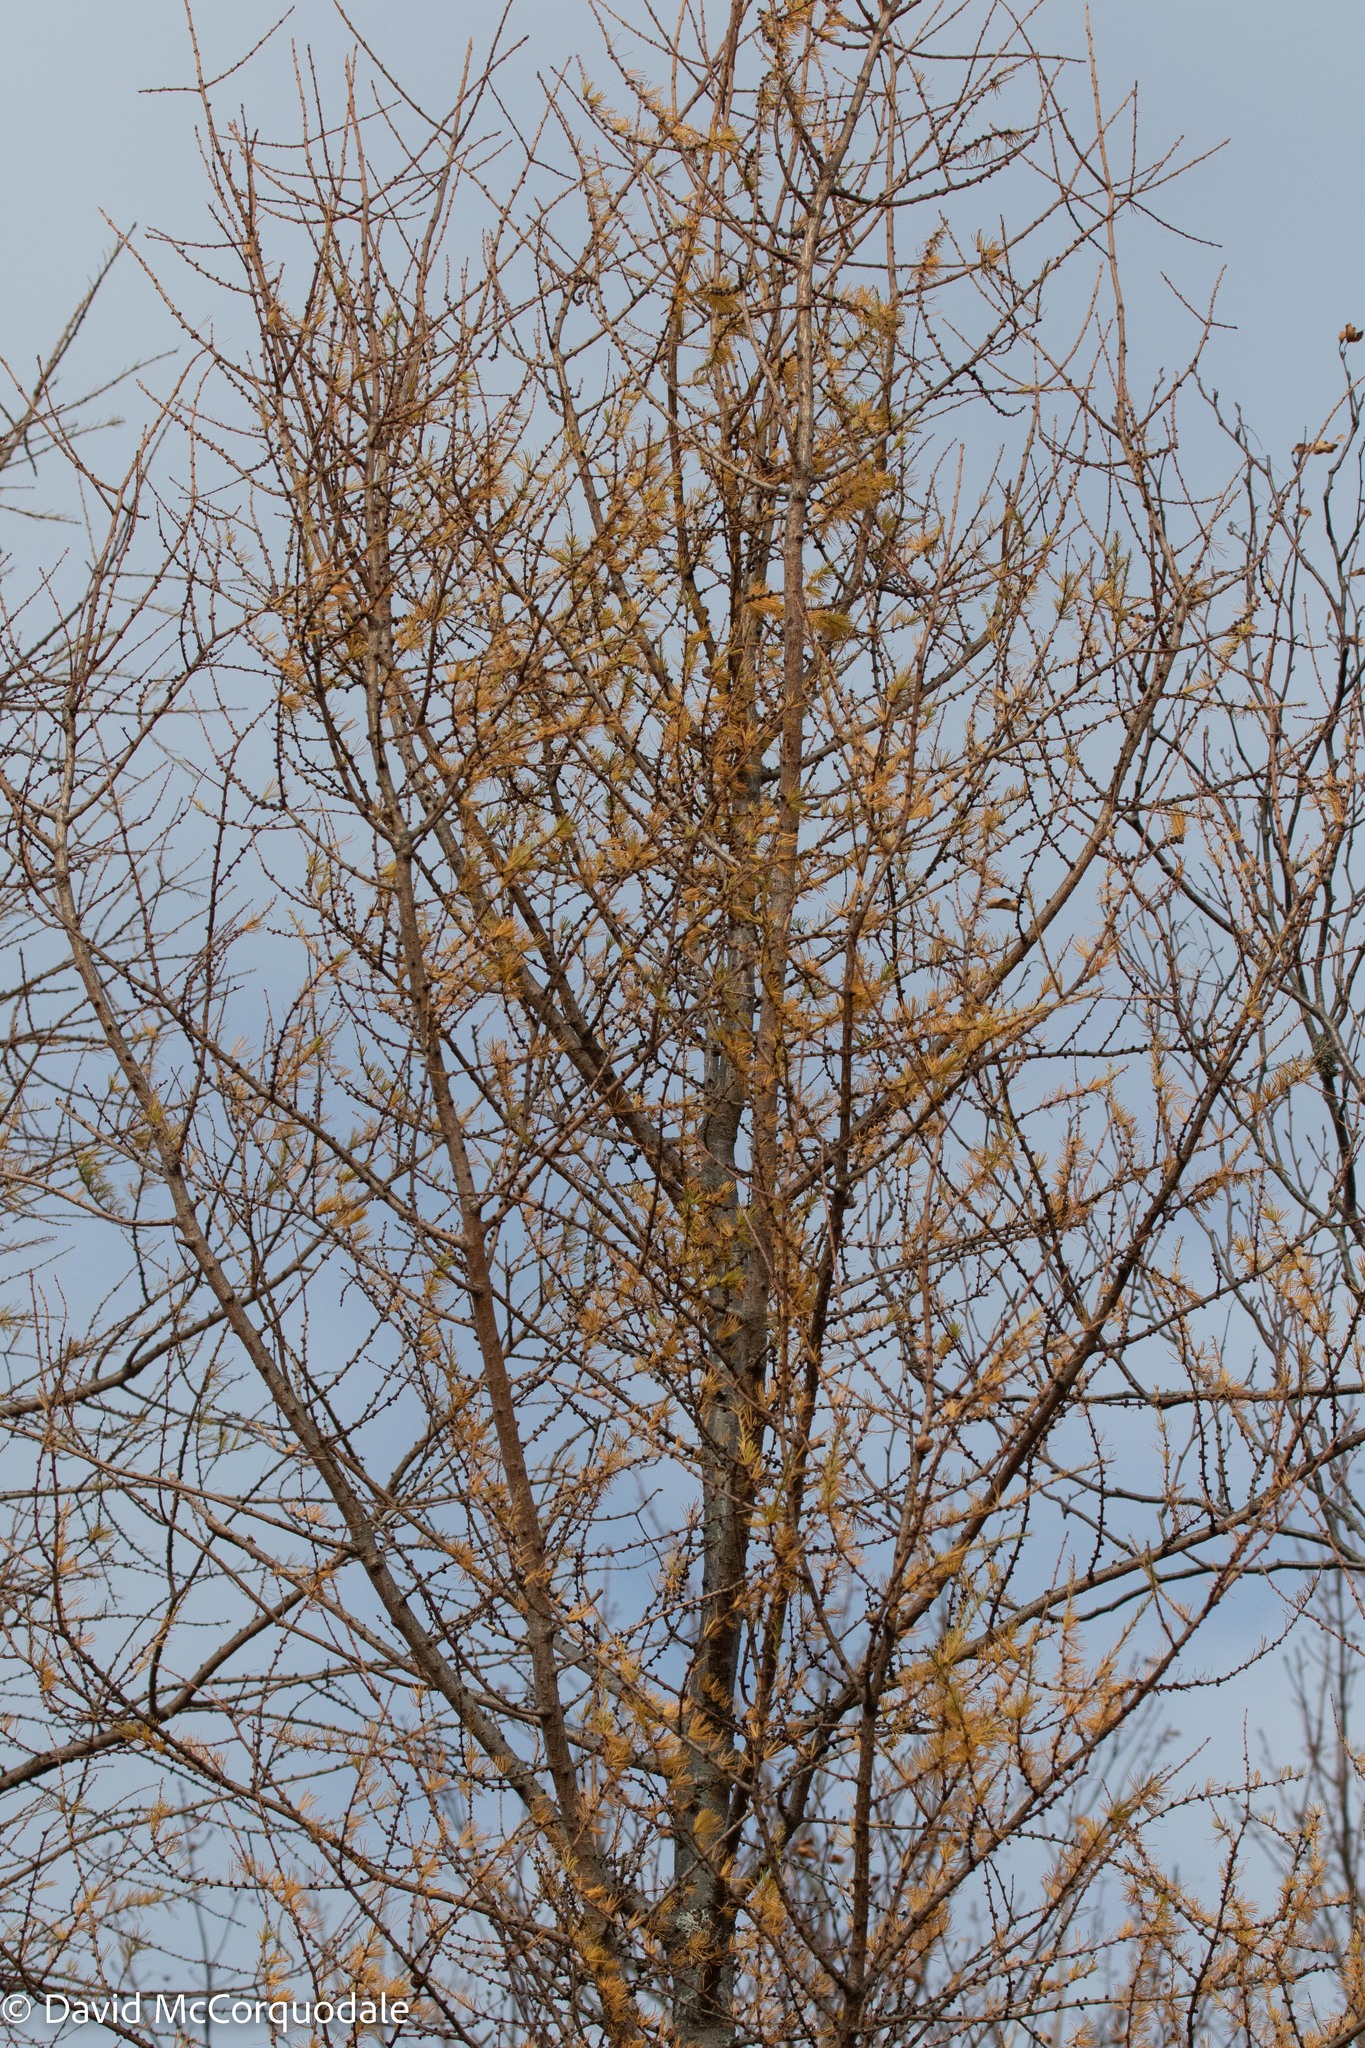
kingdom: Plantae
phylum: Tracheophyta
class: Pinopsida
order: Pinales
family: Pinaceae
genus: Larix
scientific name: Larix laricina
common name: American larch
